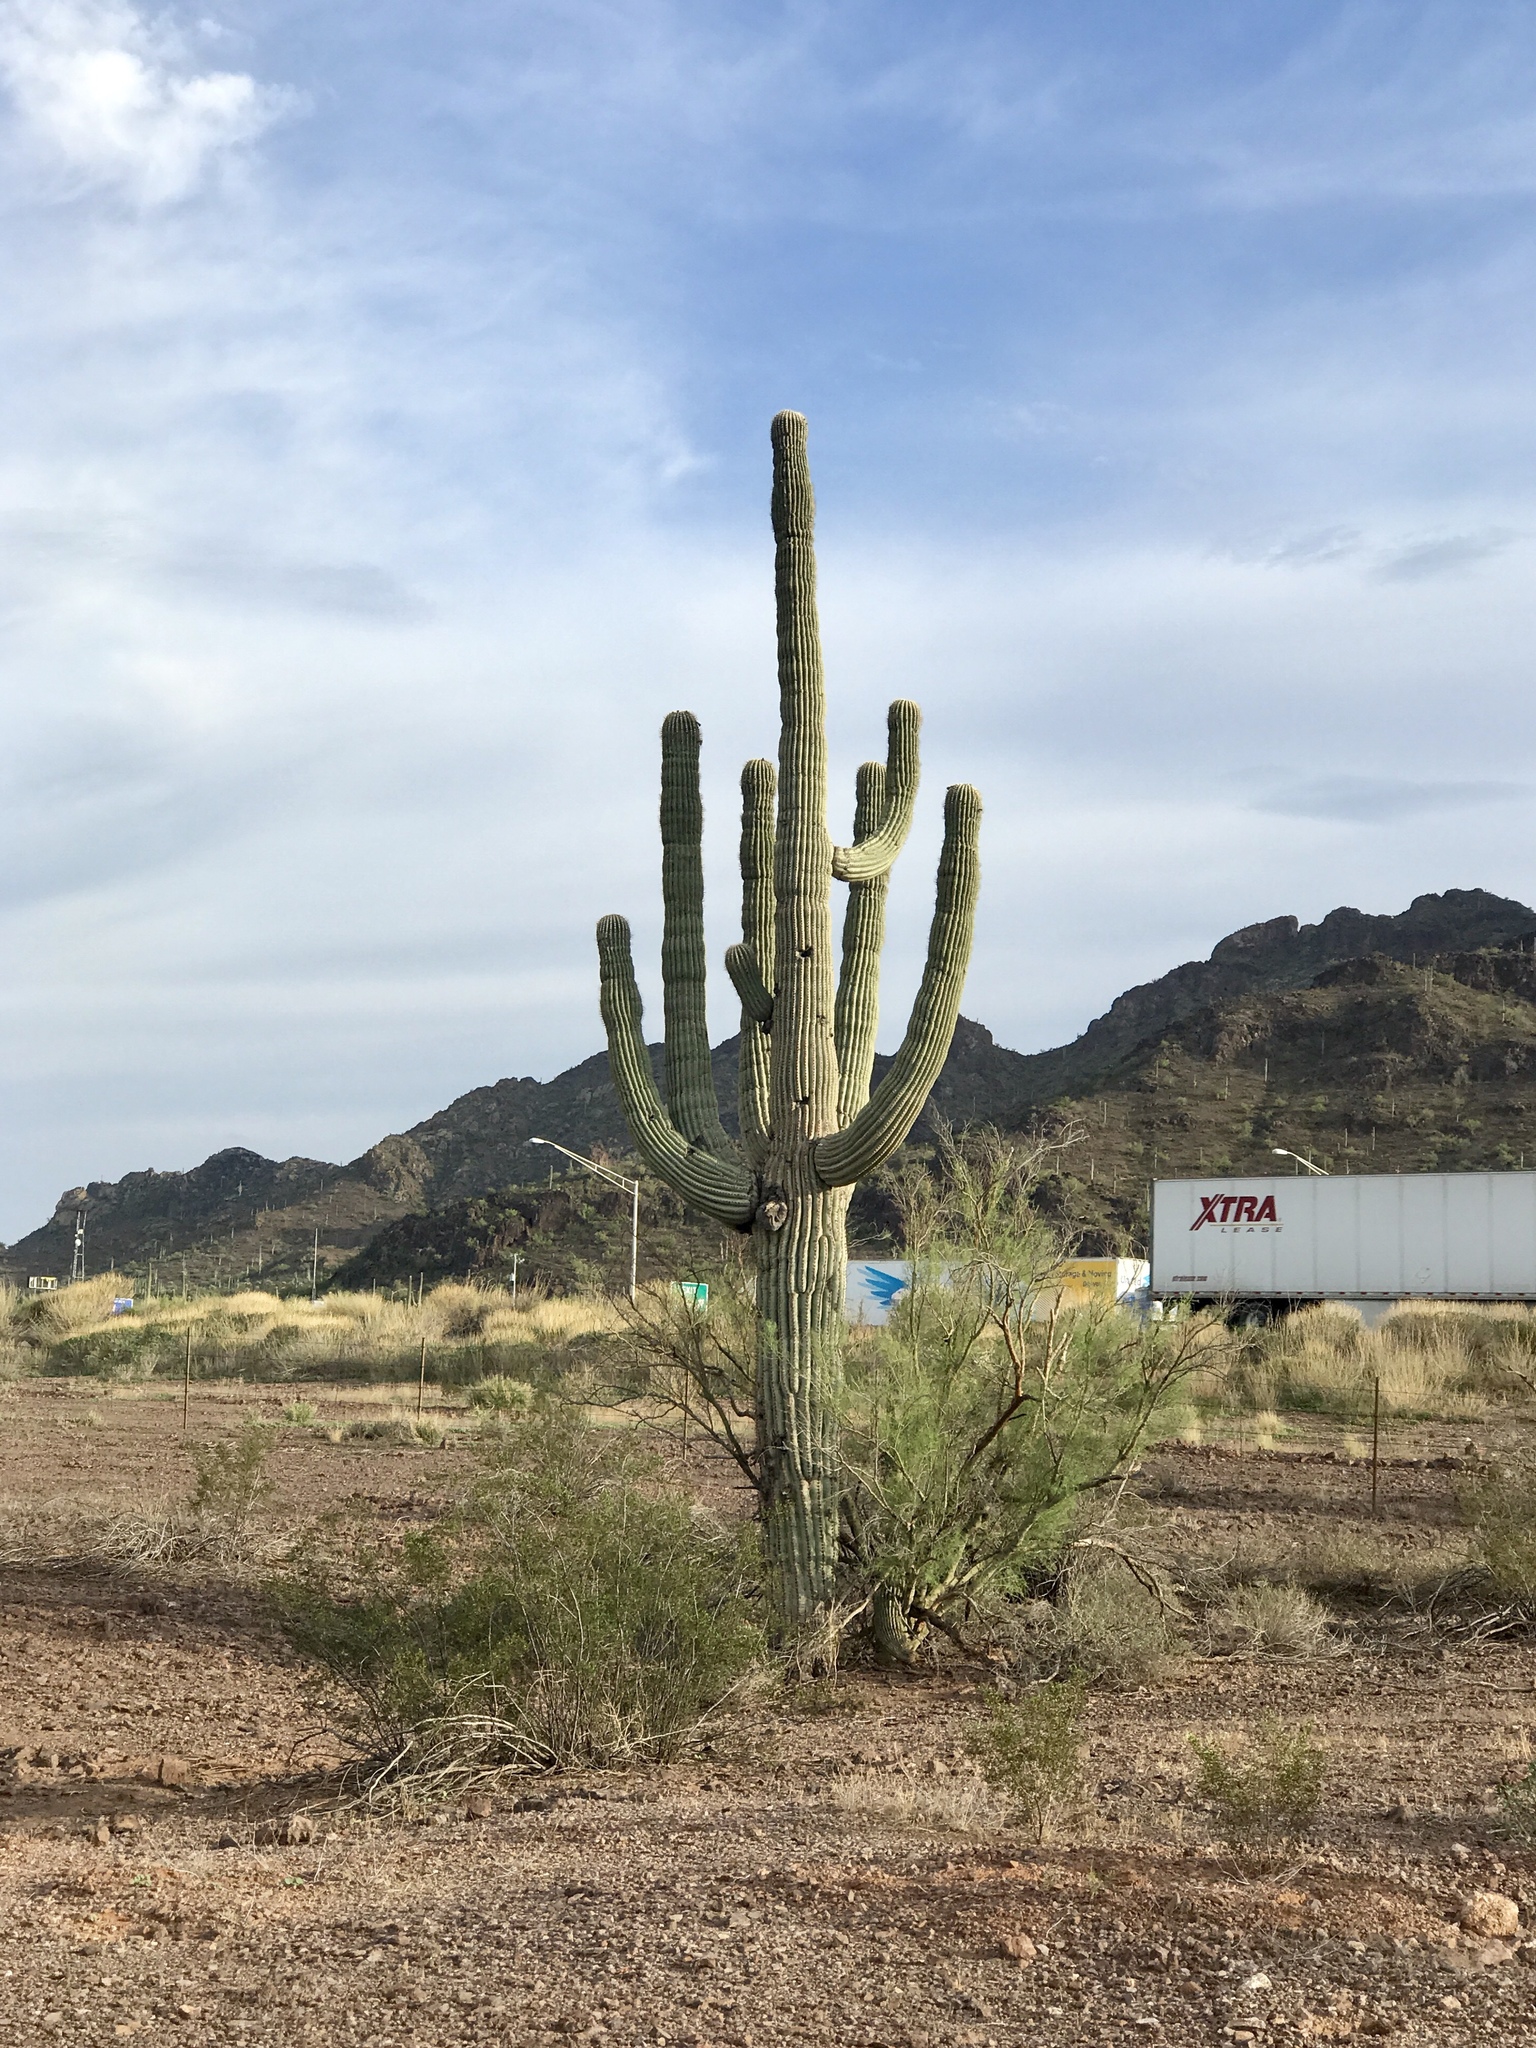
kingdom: Plantae
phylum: Tracheophyta
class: Magnoliopsida
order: Caryophyllales
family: Cactaceae
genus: Carnegiea
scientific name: Carnegiea gigantea
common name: Saguaro
